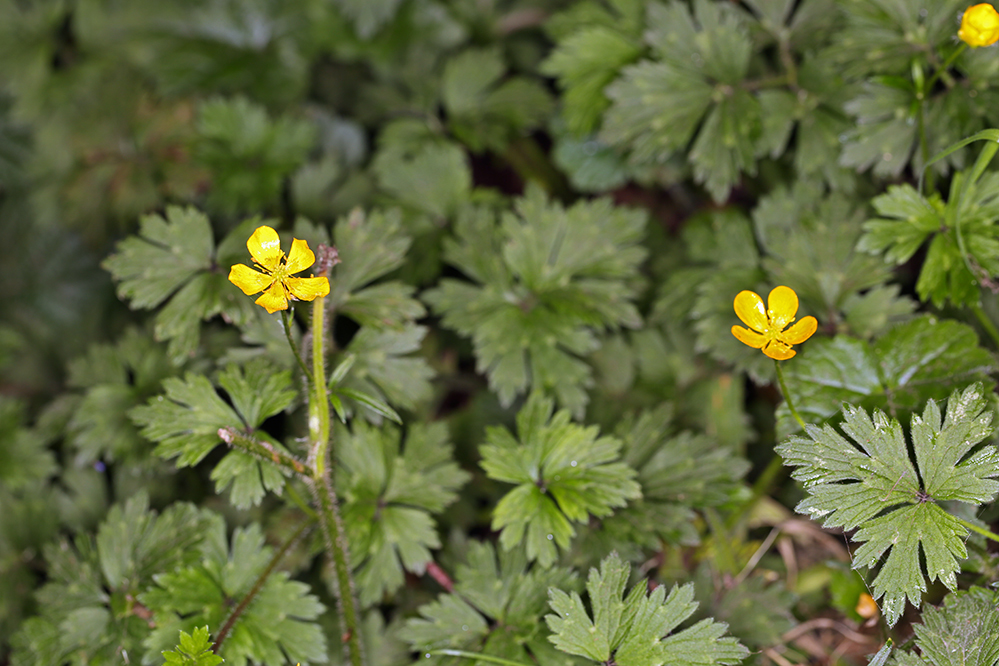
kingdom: Plantae
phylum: Tracheophyta
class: Magnoliopsida
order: Ranunculales
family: Ranunculaceae
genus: Ranunculus
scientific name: Ranunculus repens
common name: Creeping buttercup
